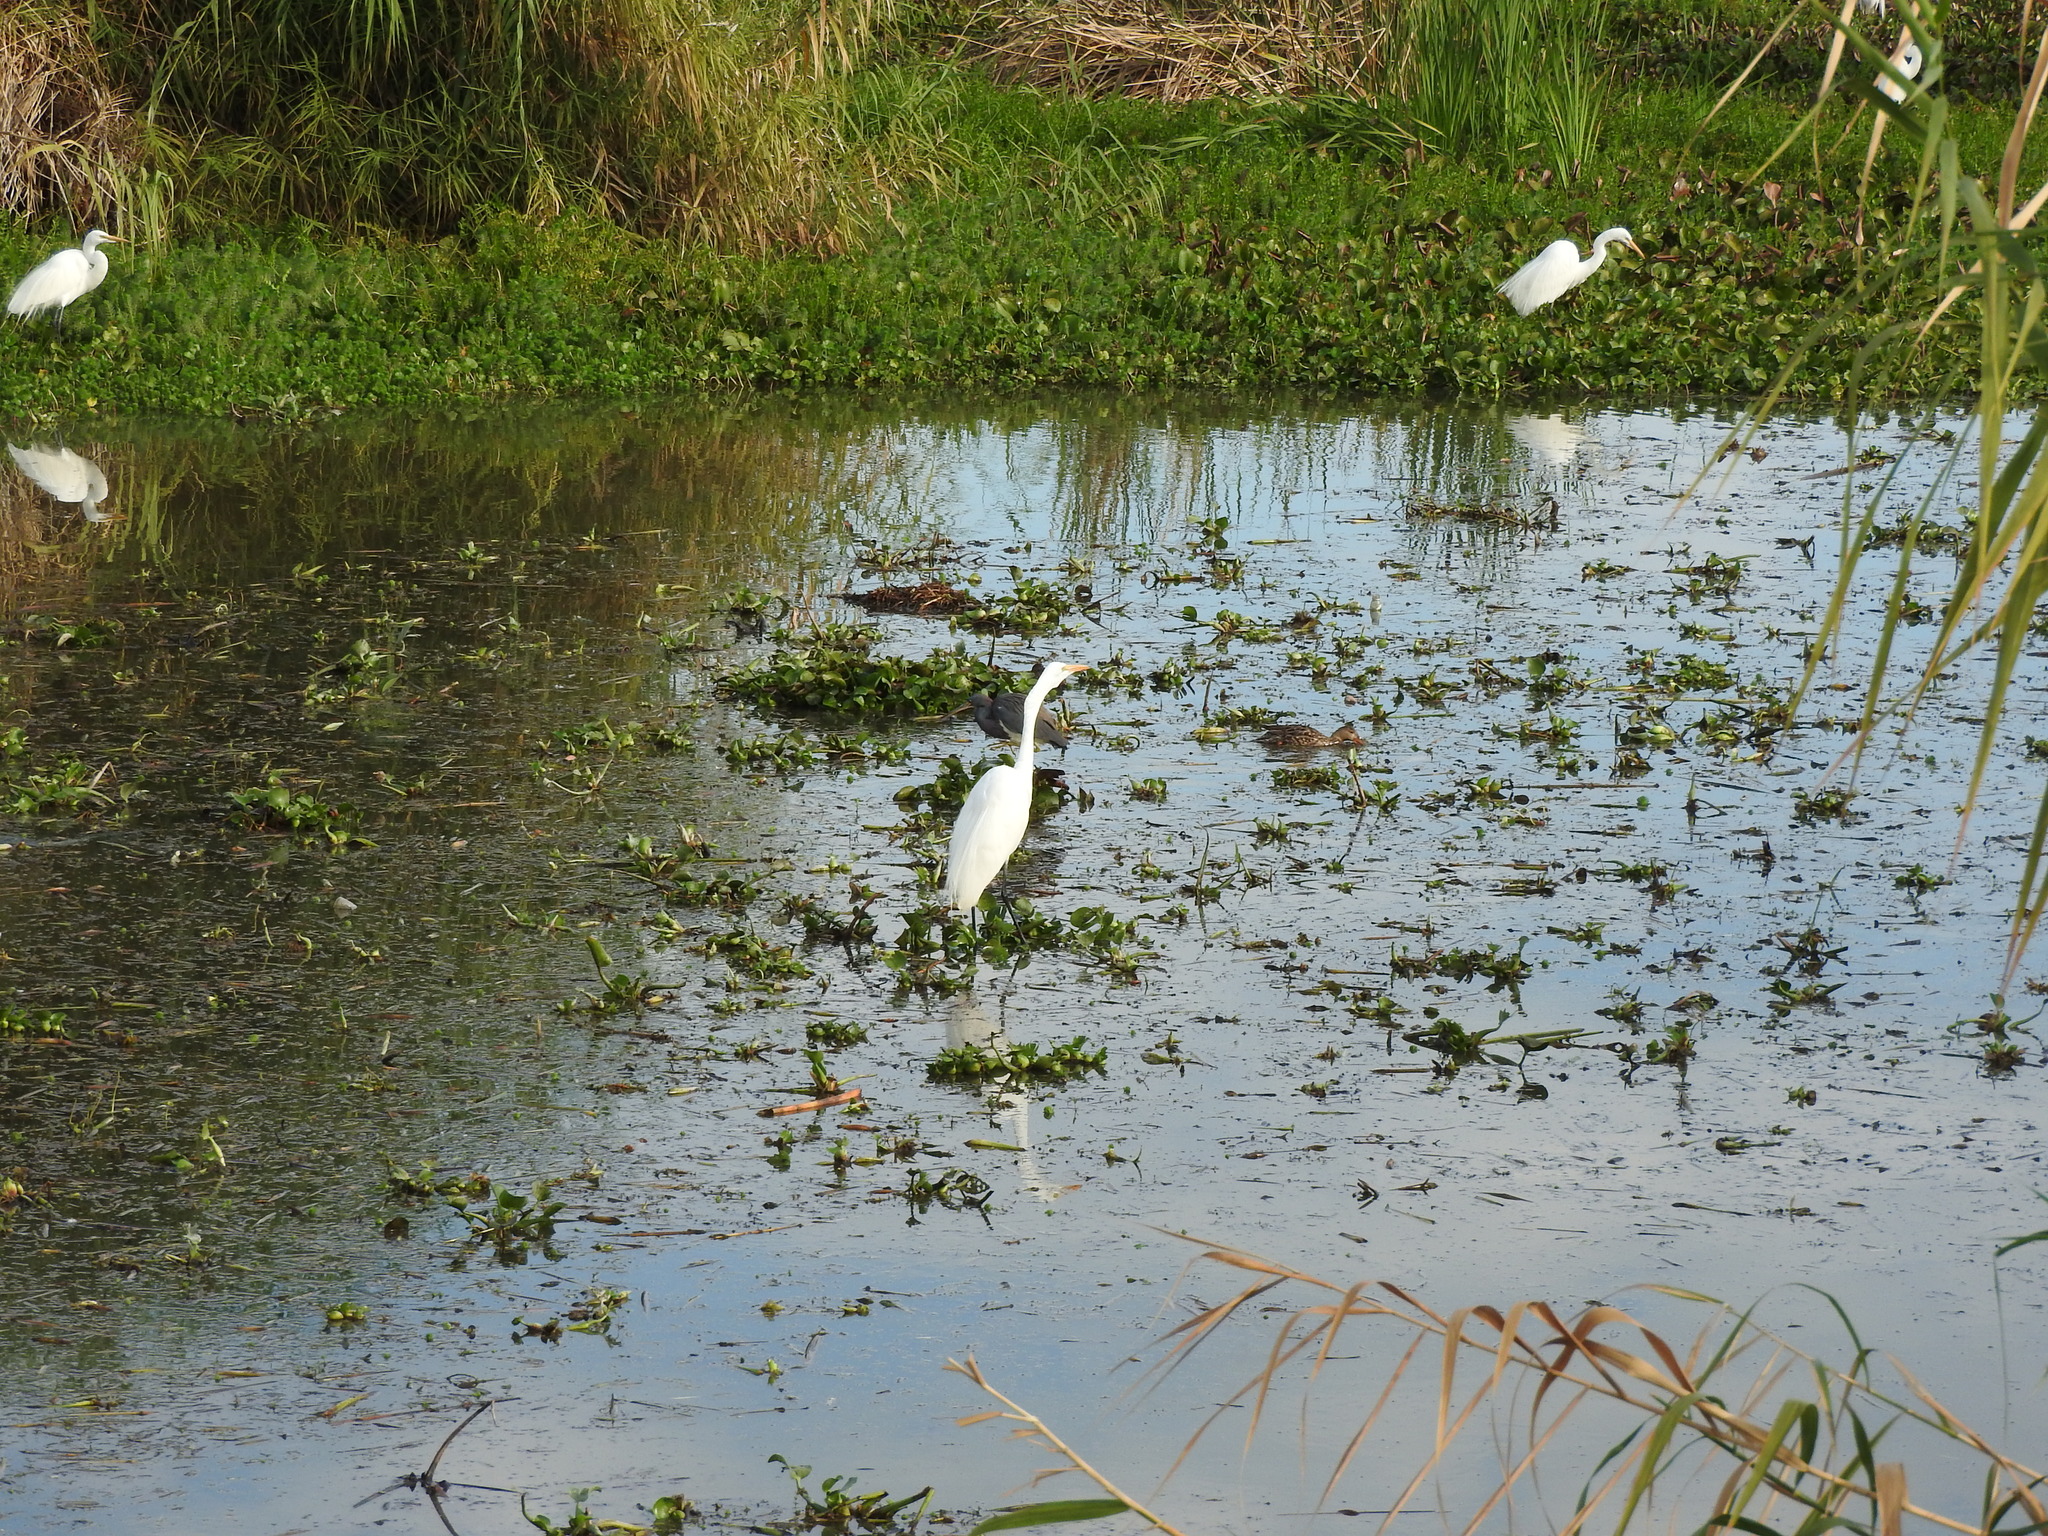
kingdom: Animalia
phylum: Chordata
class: Aves
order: Pelecaniformes
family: Ardeidae
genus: Ardea
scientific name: Ardea alba
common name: Great egret
